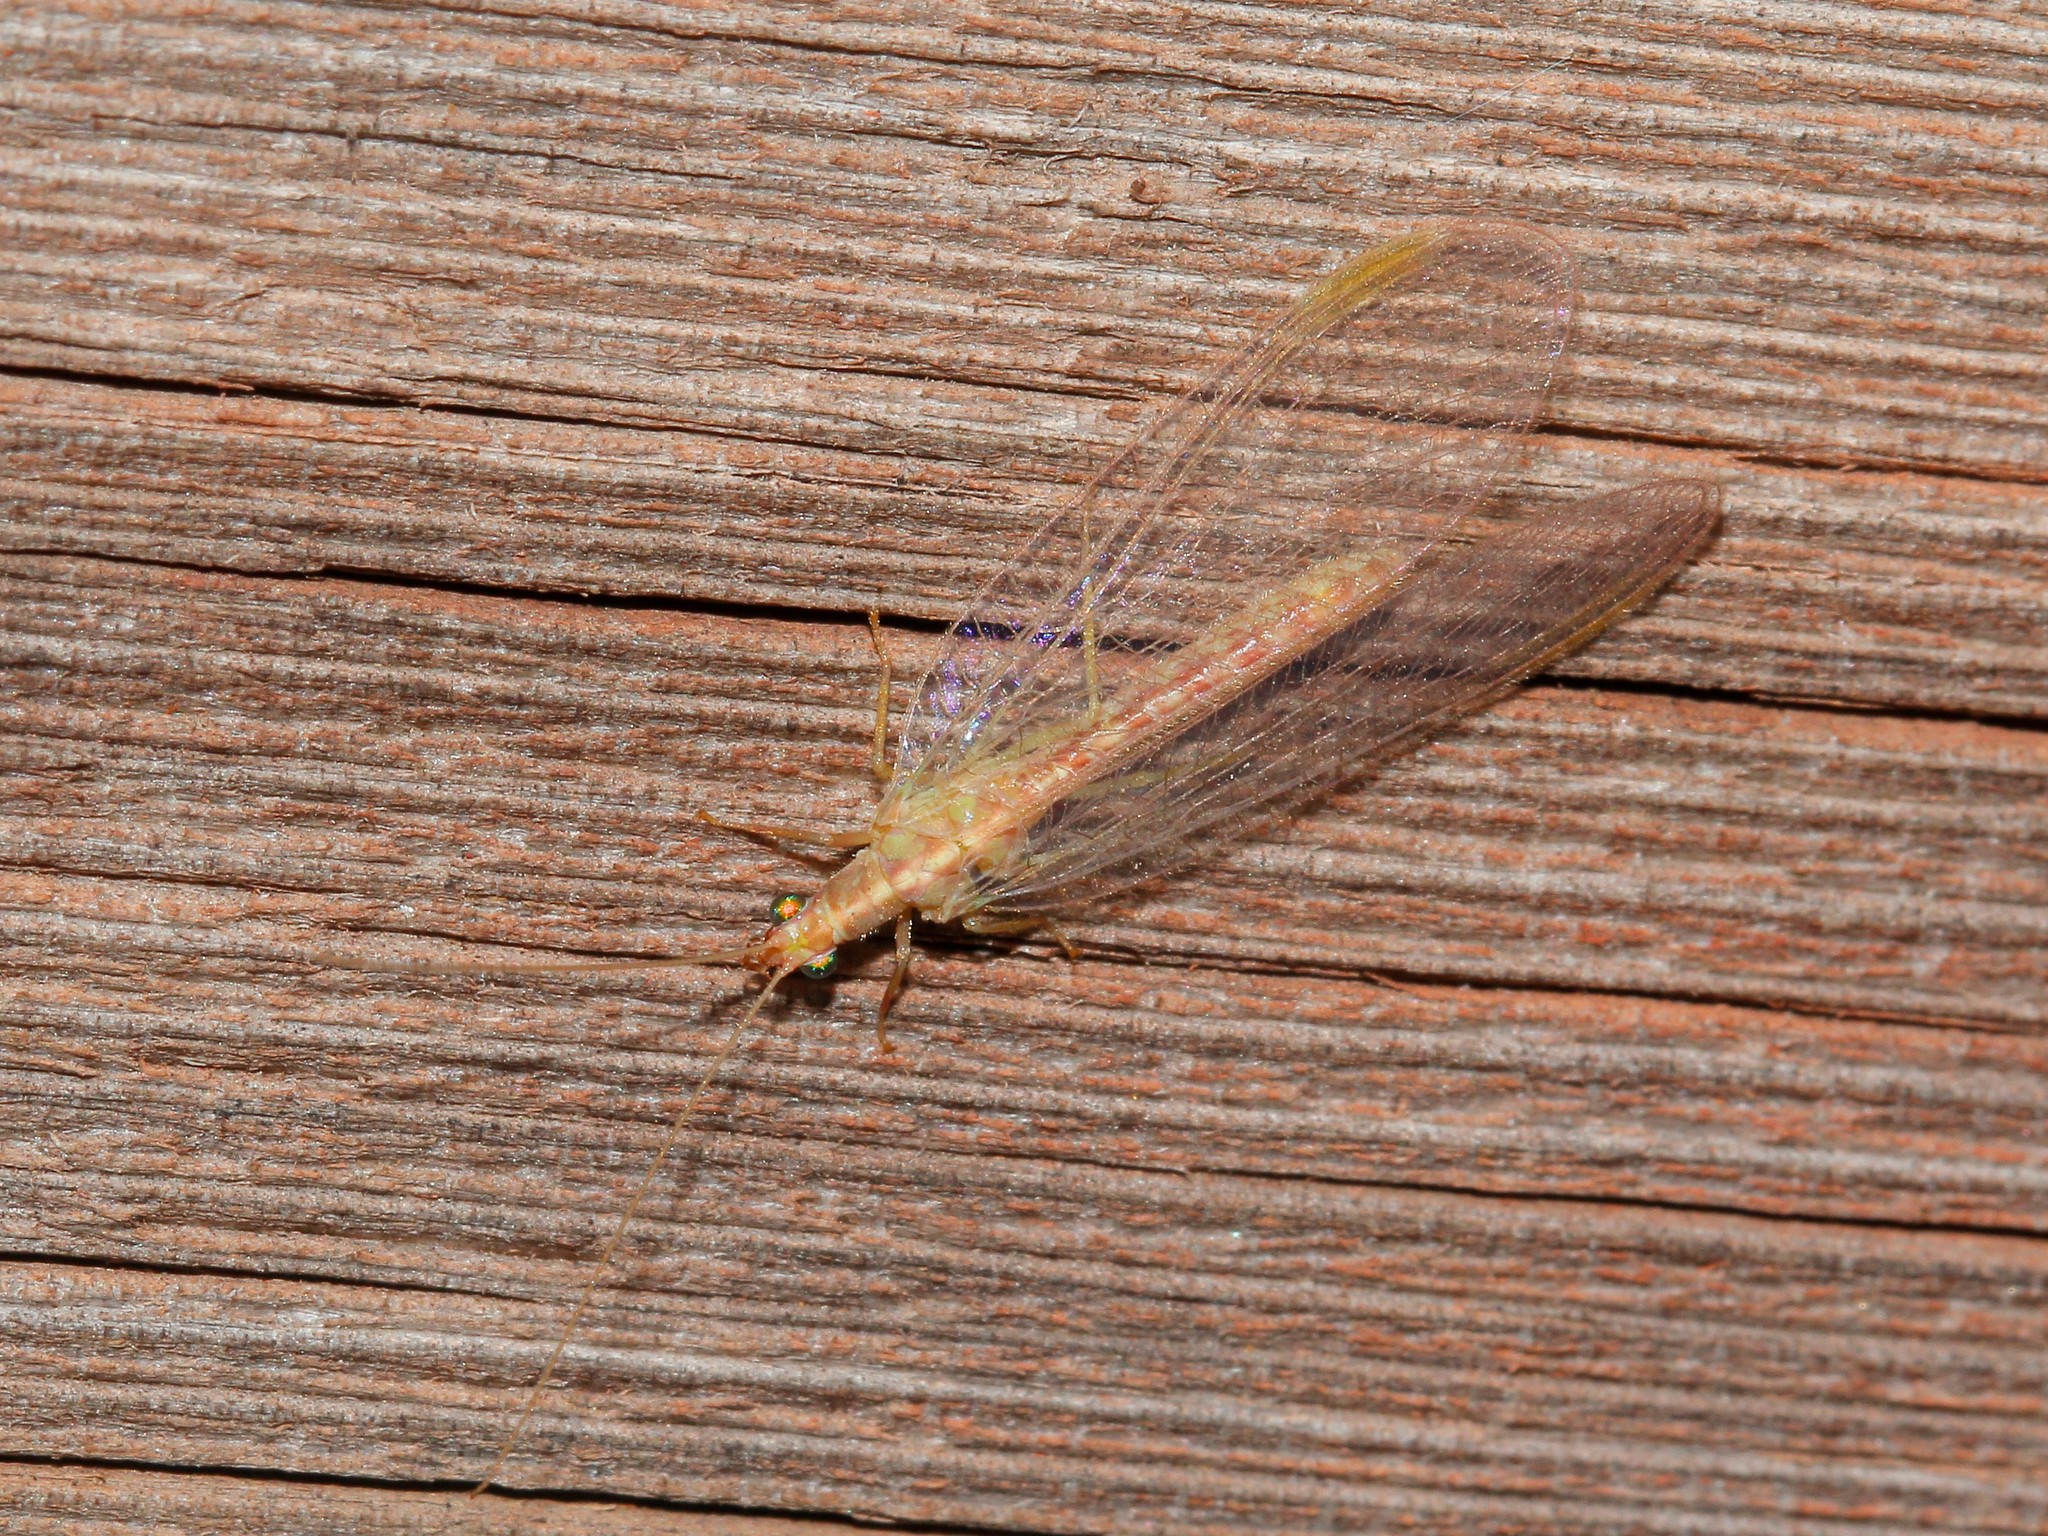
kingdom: Animalia
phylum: Arthropoda
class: Insecta
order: Neuroptera
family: Chrysopidae
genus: Chrysoperla
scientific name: Chrysoperla
